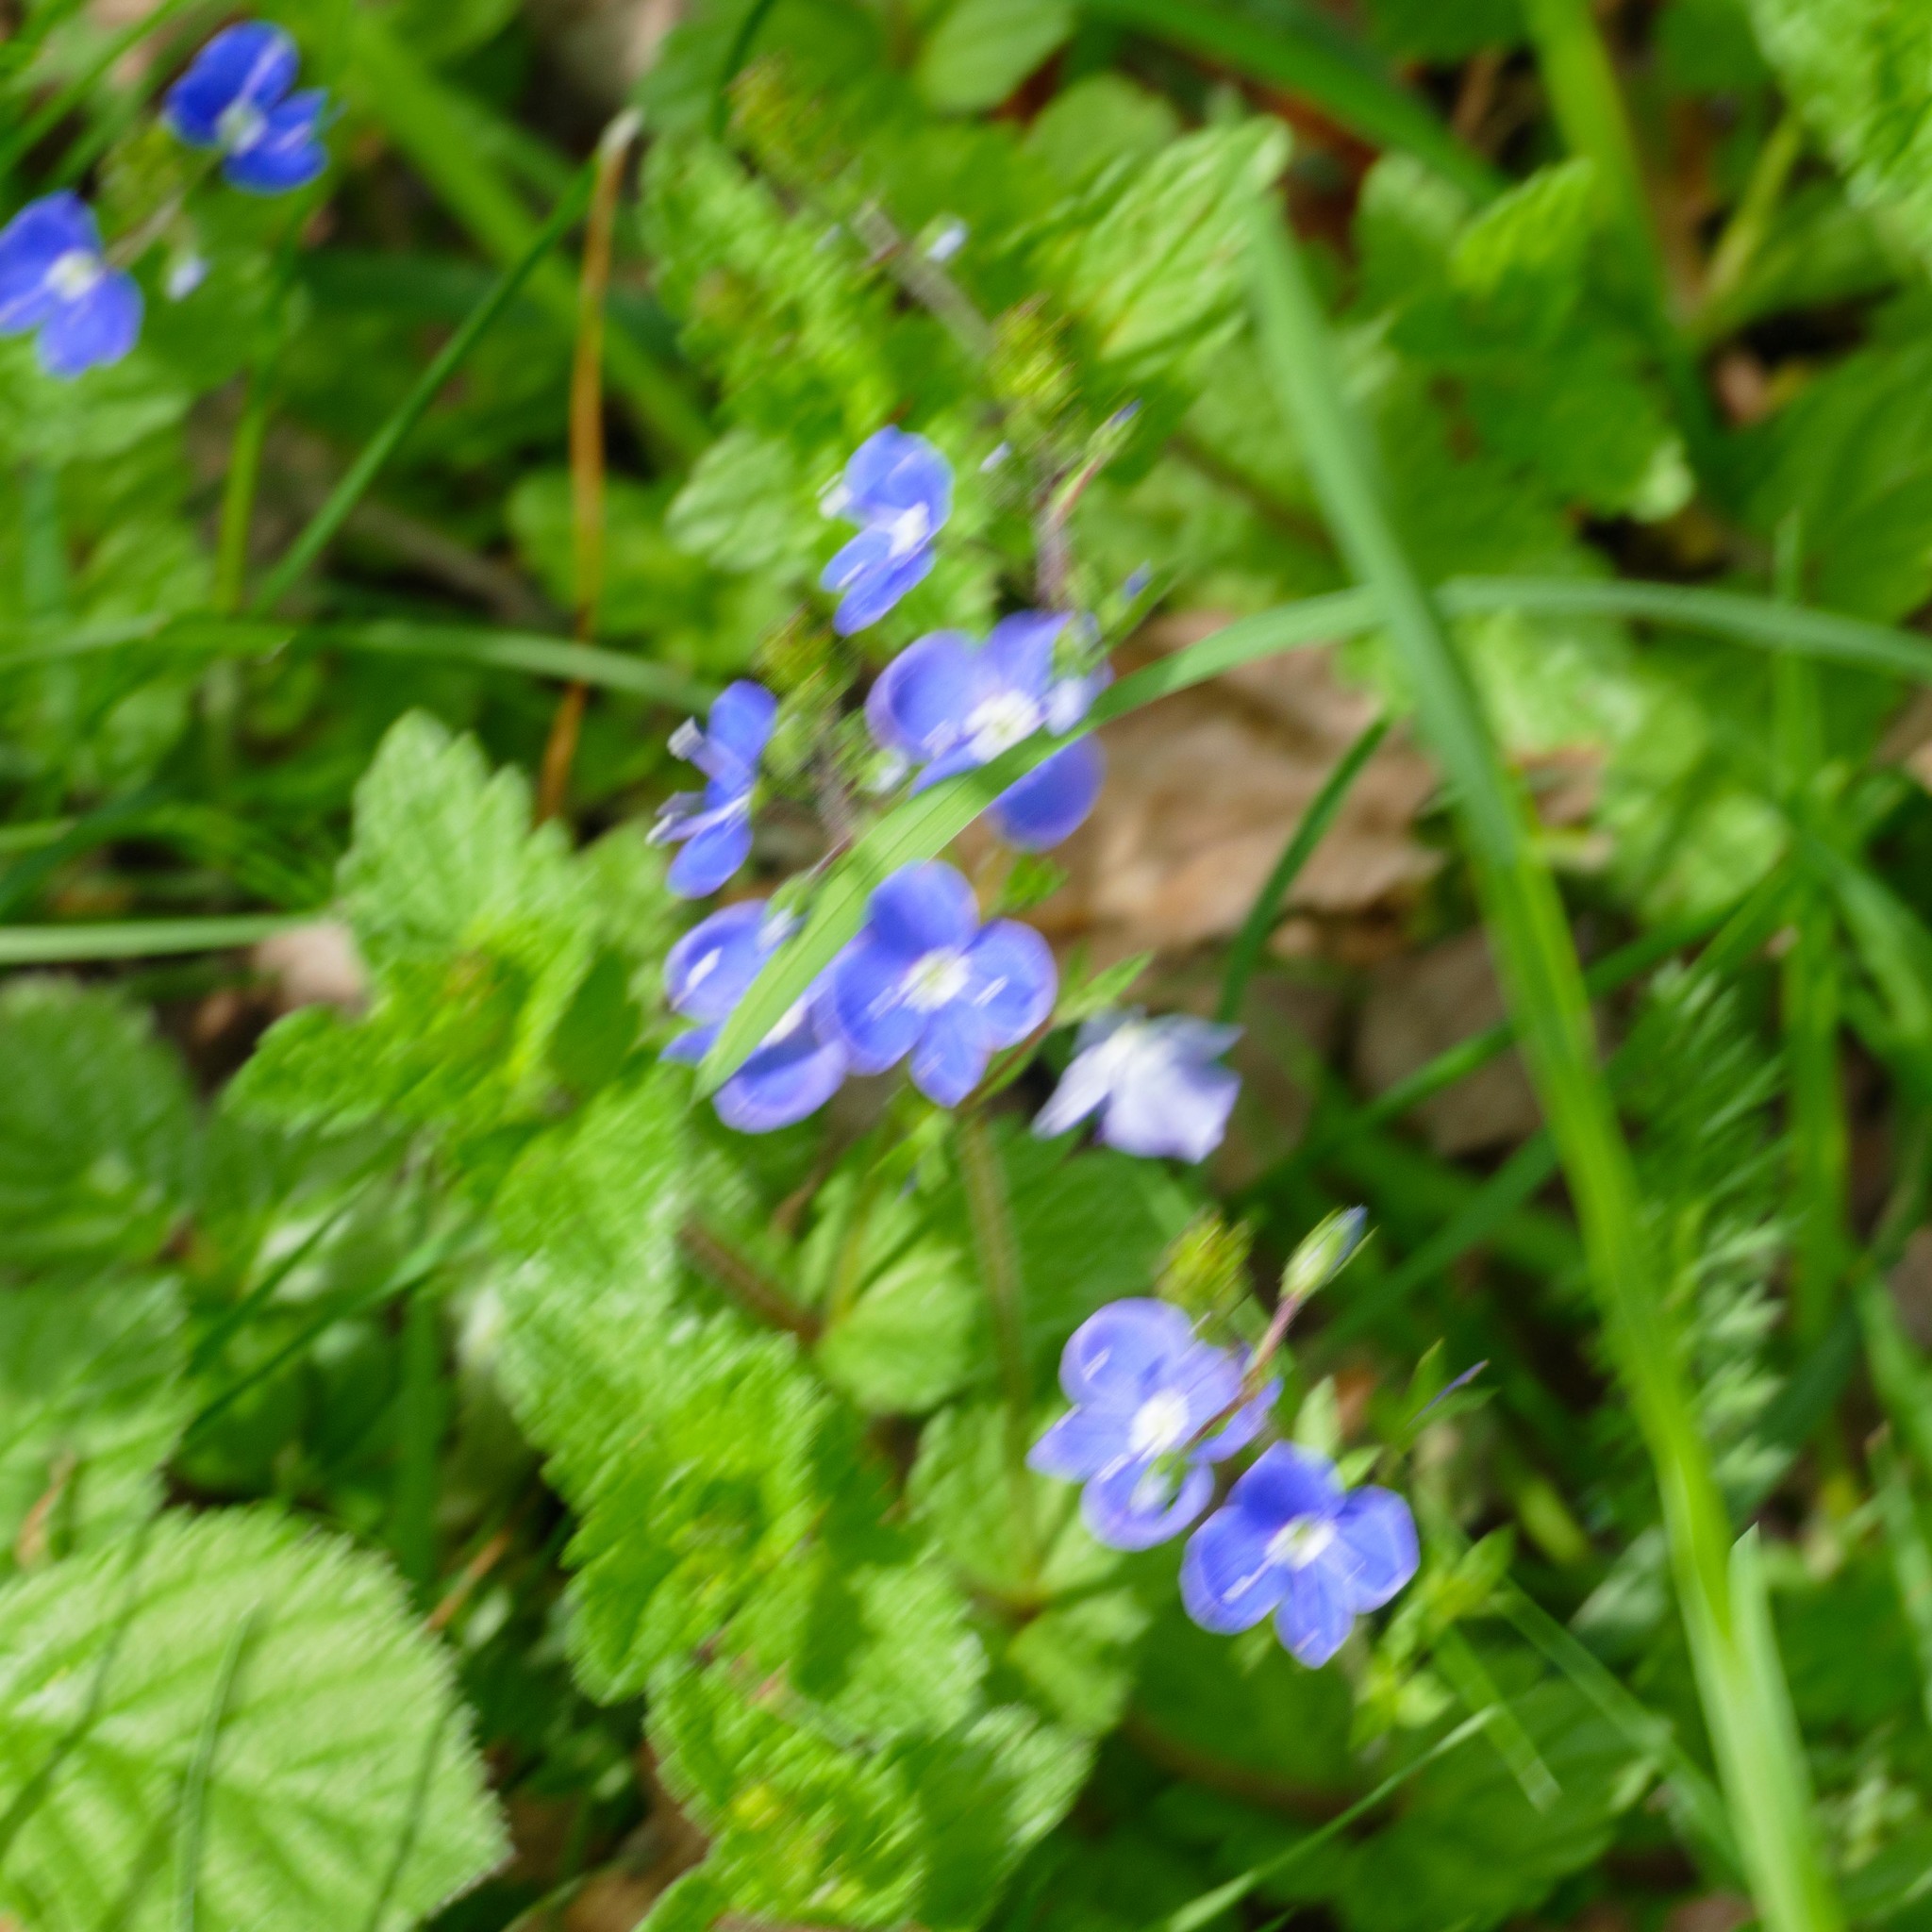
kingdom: Plantae
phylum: Tracheophyta
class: Magnoliopsida
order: Lamiales
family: Plantaginaceae
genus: Veronica
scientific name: Veronica chamaedrys
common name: Germander speedwell
